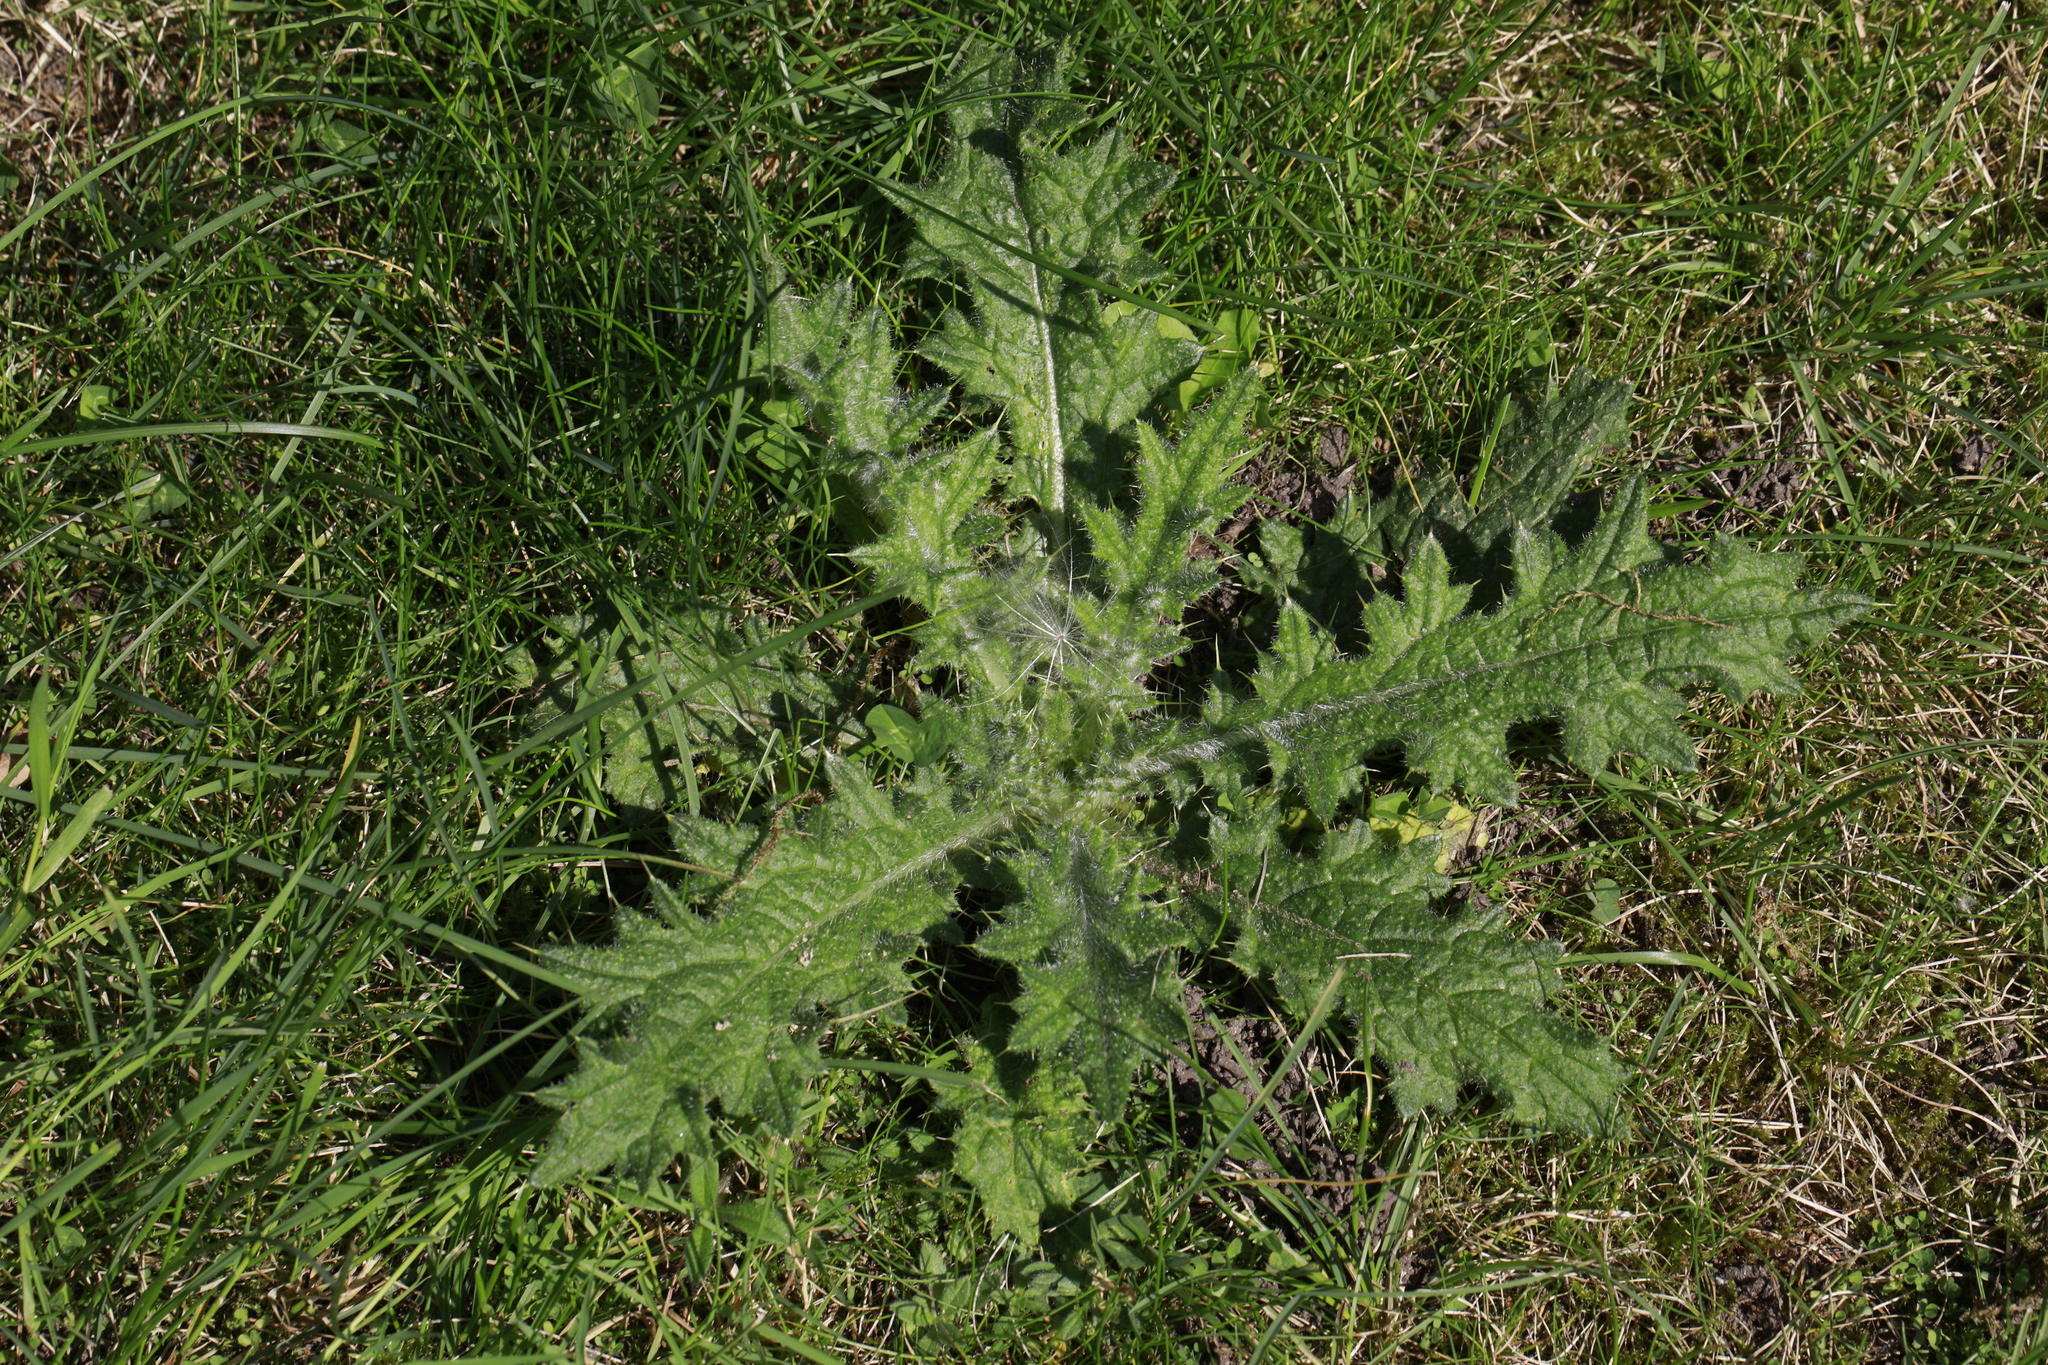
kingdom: Plantae
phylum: Tracheophyta
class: Magnoliopsida
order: Asterales
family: Asteraceae
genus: Cirsium
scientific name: Cirsium vulgare
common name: Bull thistle
